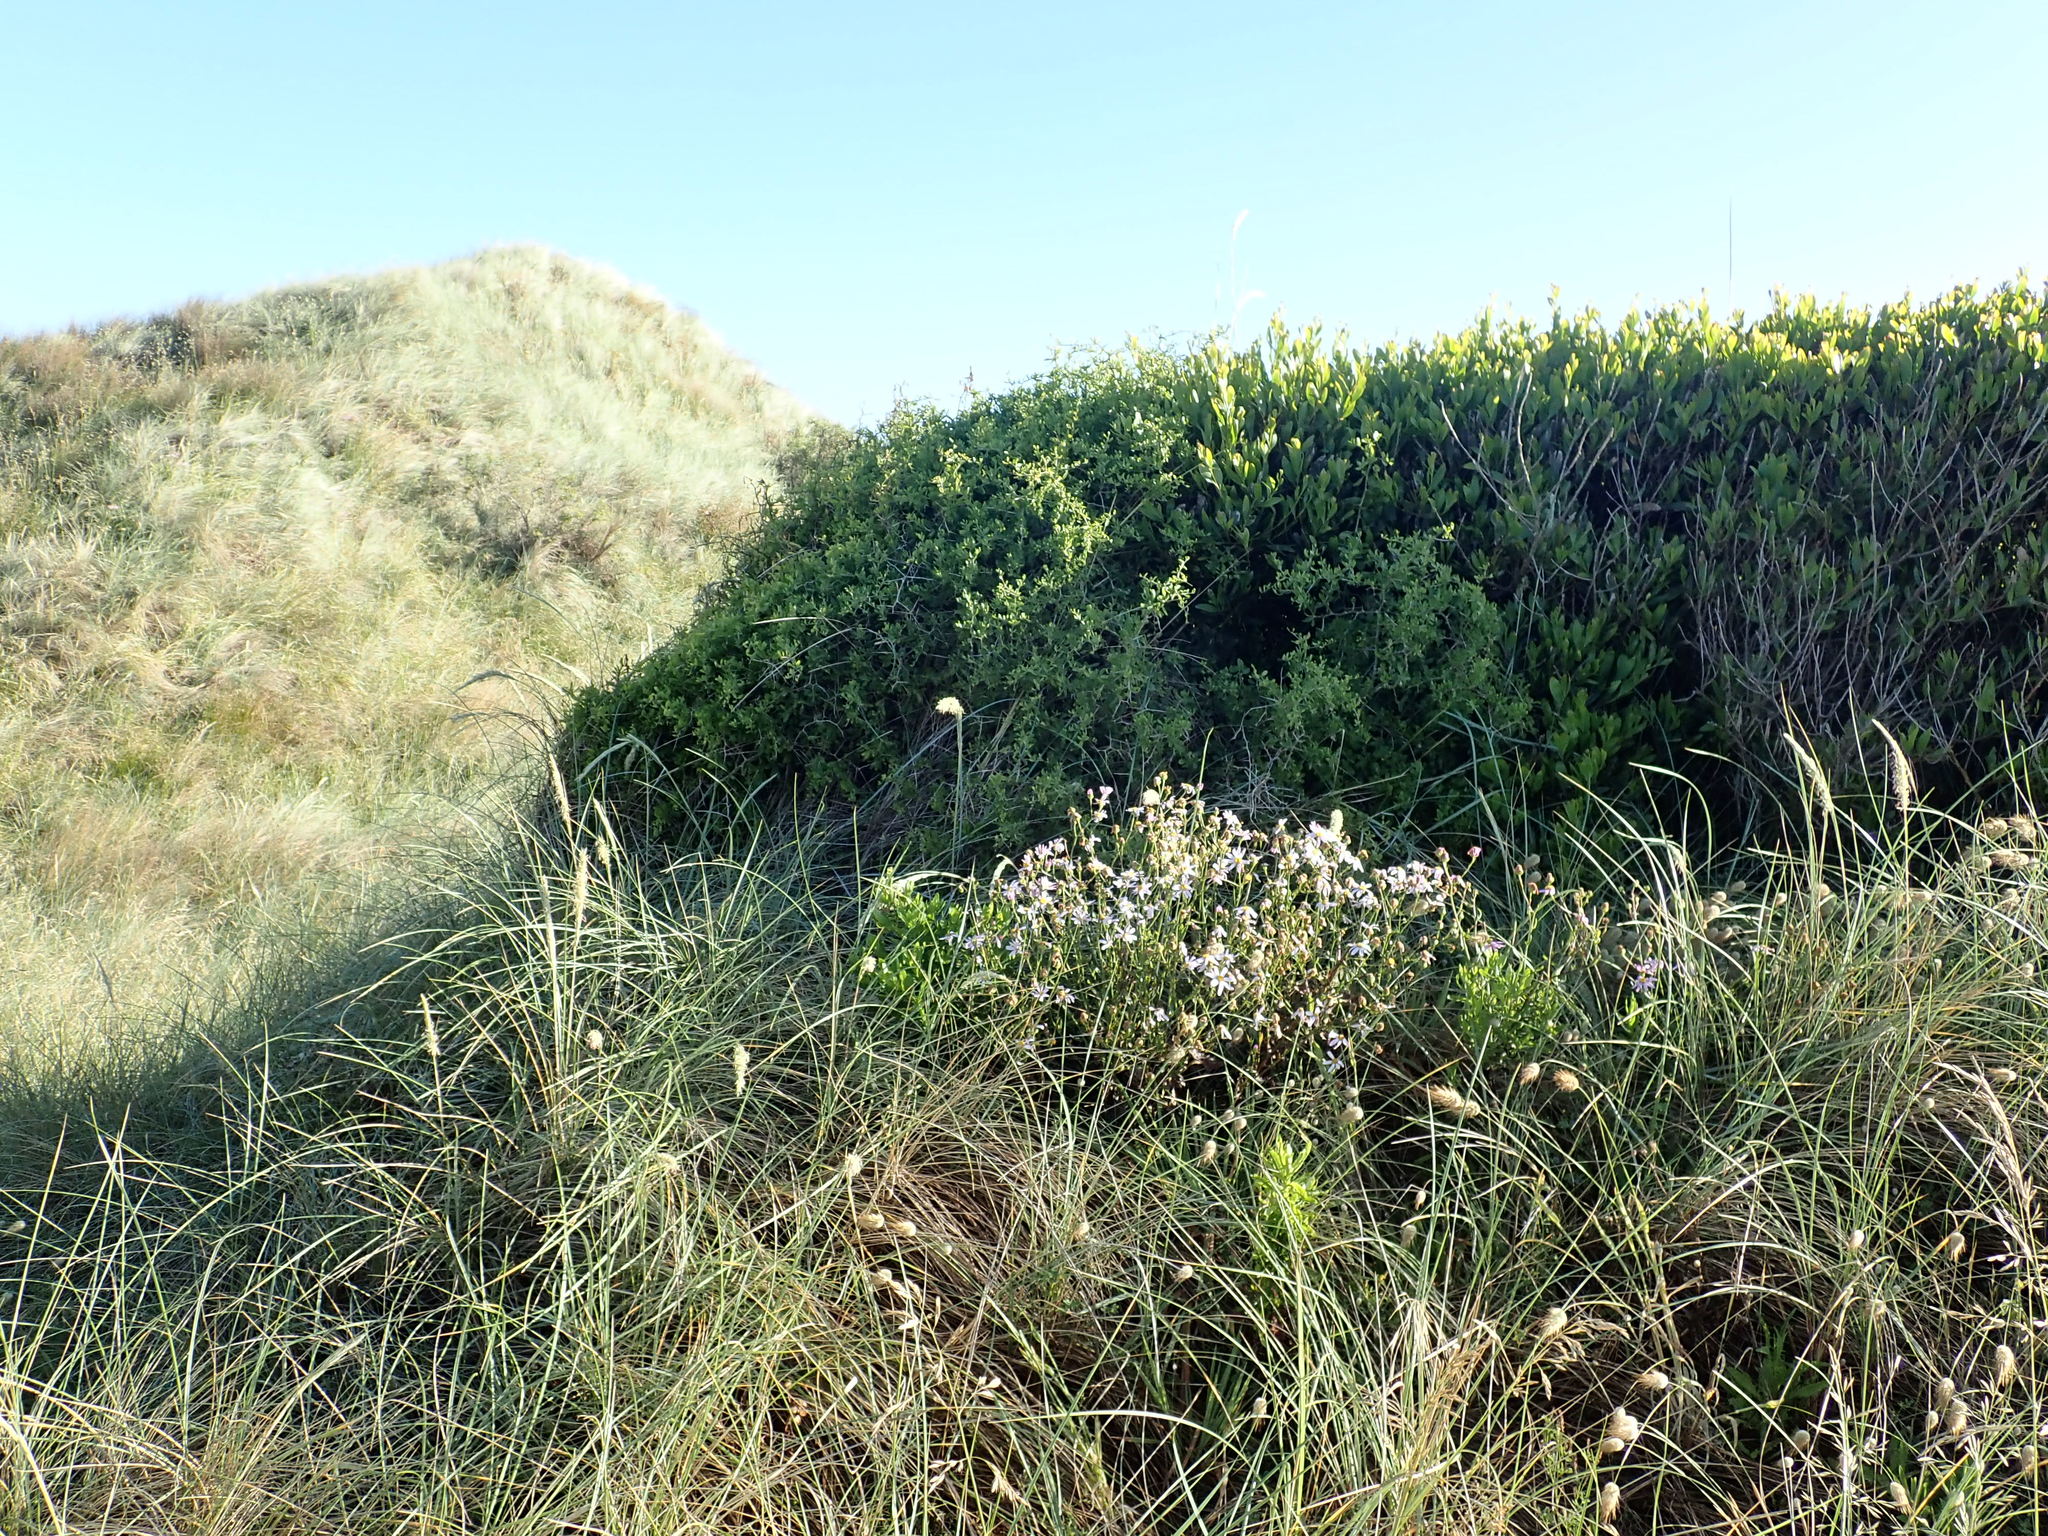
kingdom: Plantae
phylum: Tracheophyta
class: Magnoliopsida
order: Fabales
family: Fabaceae
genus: Acacia
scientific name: Acacia longifolia
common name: Sydney golden wattle
